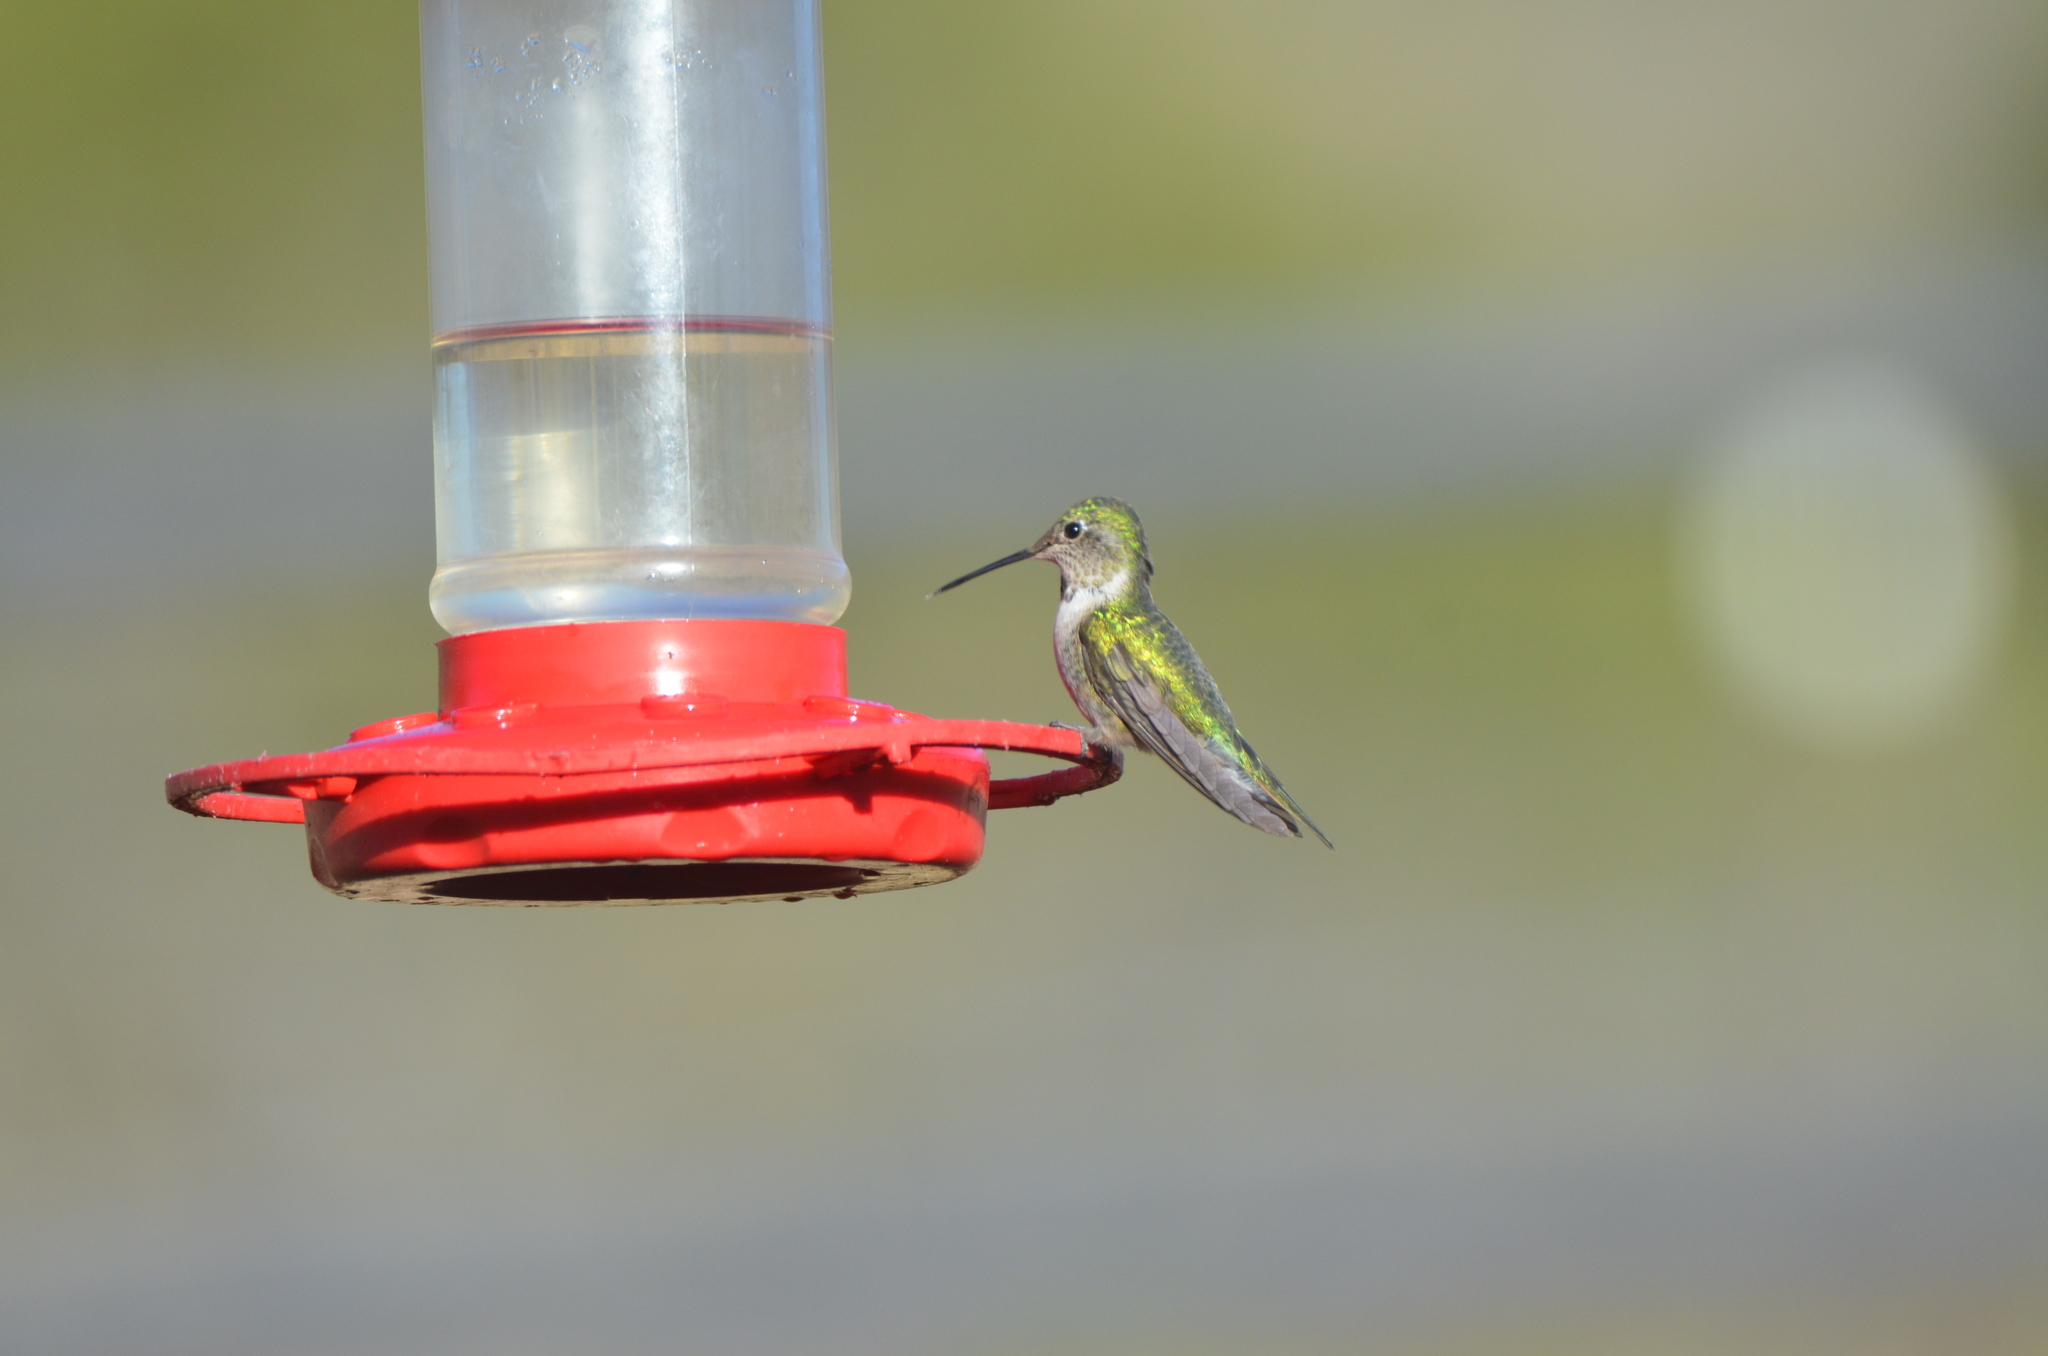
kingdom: Animalia
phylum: Chordata
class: Aves
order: Apodiformes
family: Trochilidae
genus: Selasphorus
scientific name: Selasphorus platycercus
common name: Broad-tailed hummingbird
